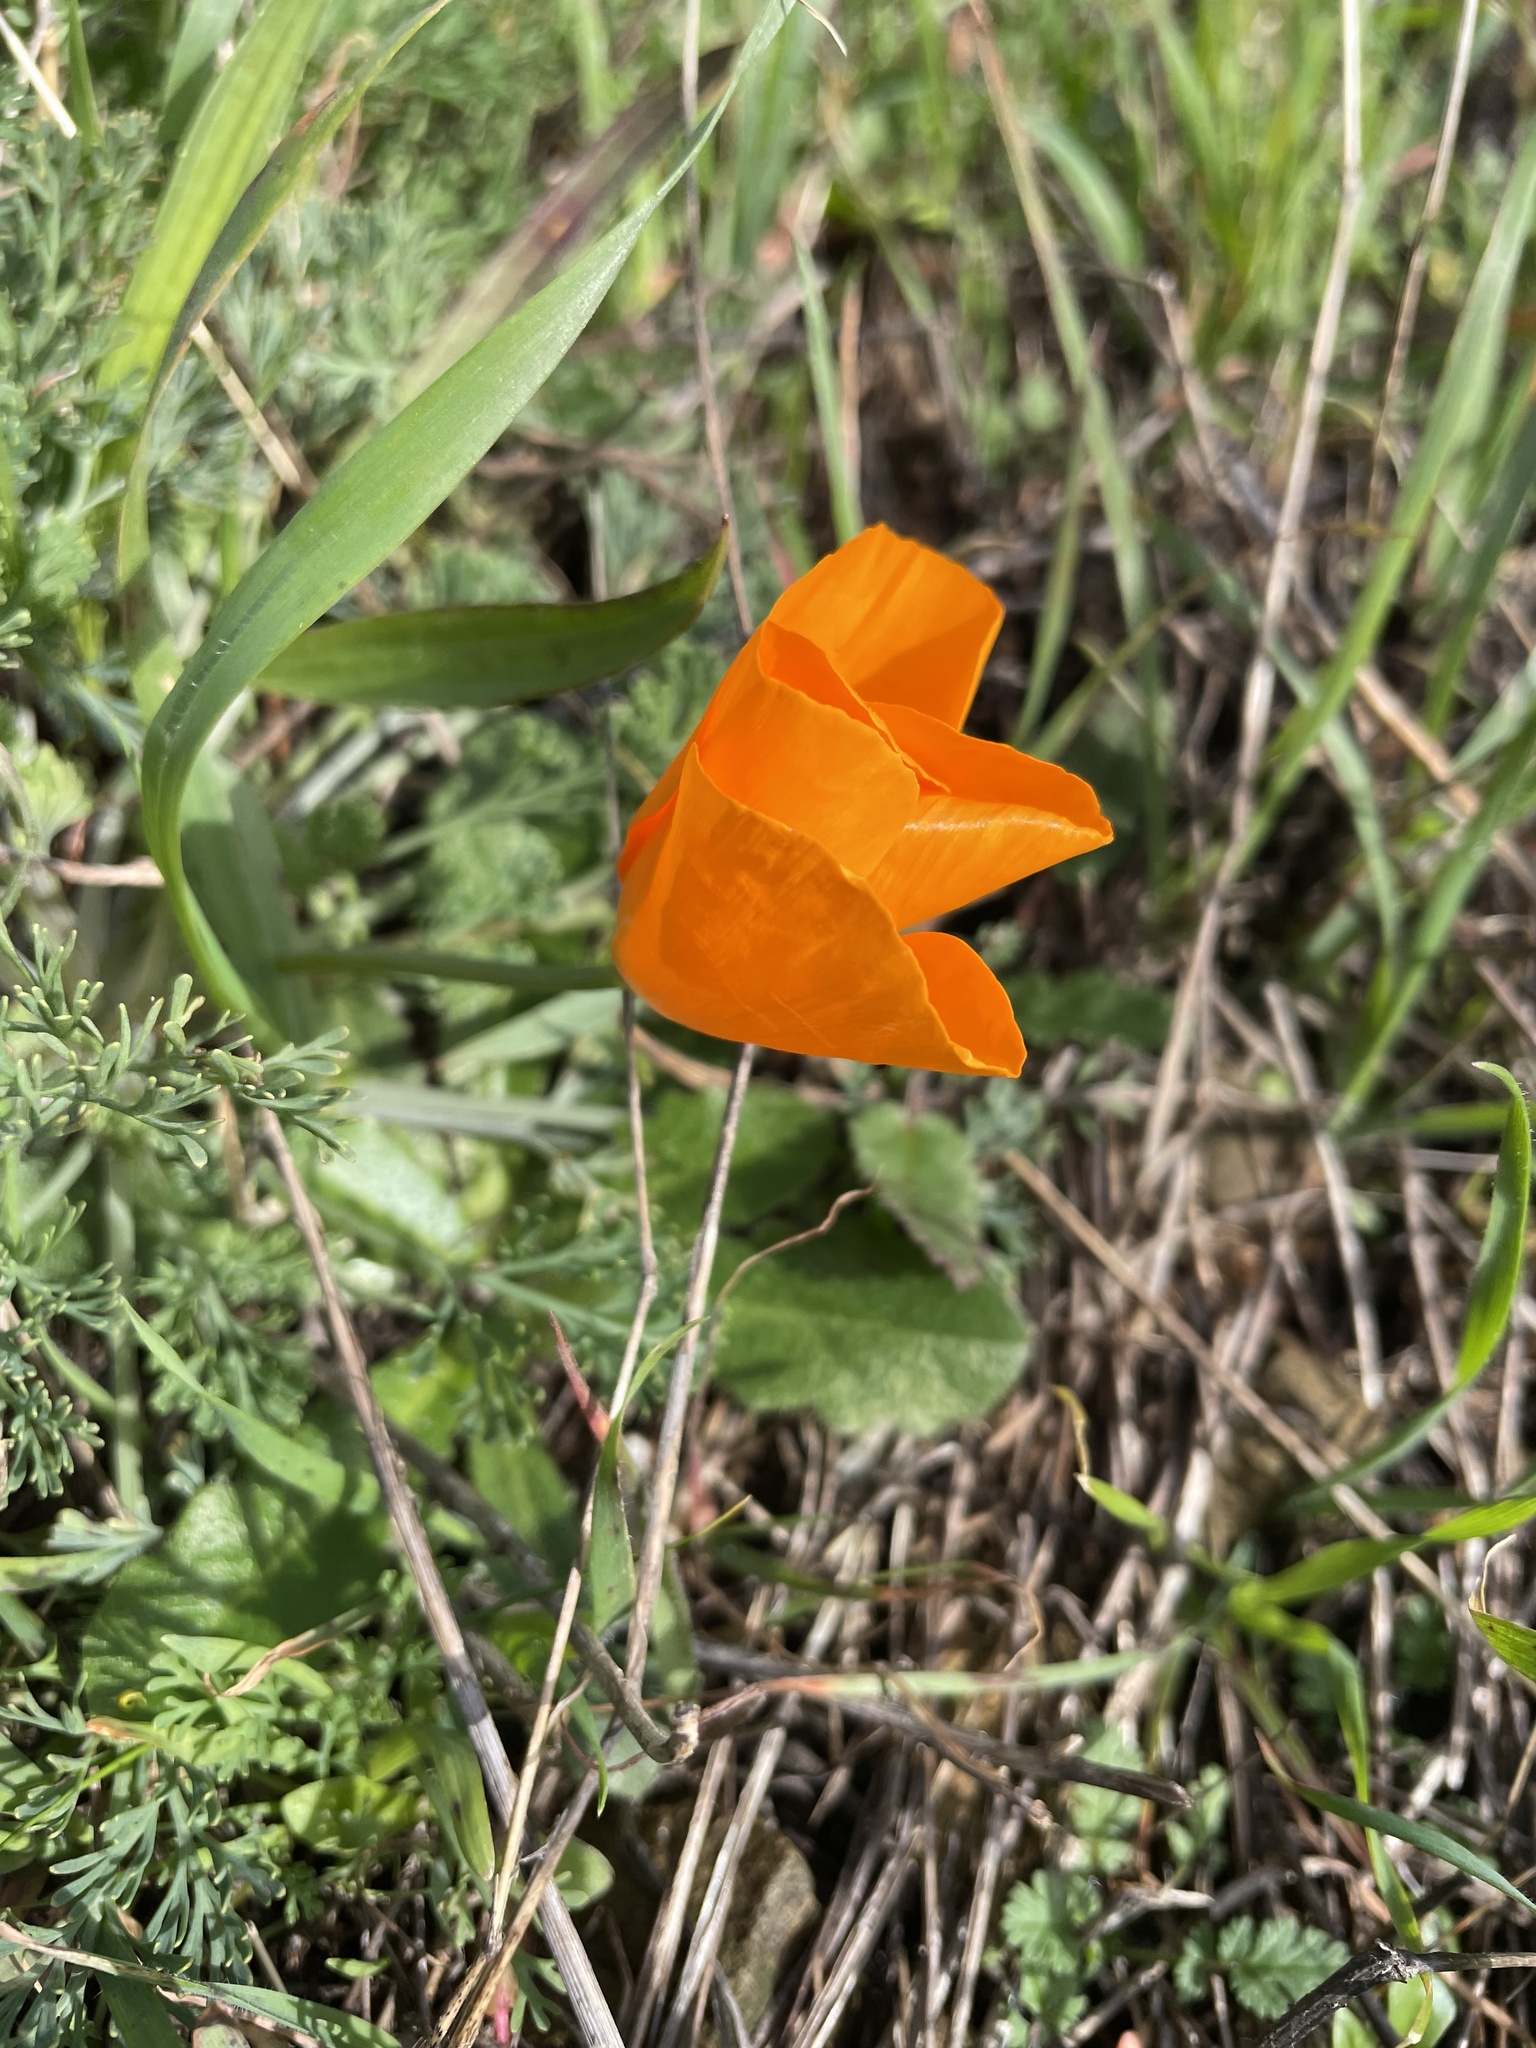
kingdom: Plantae
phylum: Tracheophyta
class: Magnoliopsida
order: Ranunculales
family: Papaveraceae
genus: Eschscholzia
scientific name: Eschscholzia californica
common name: California poppy
